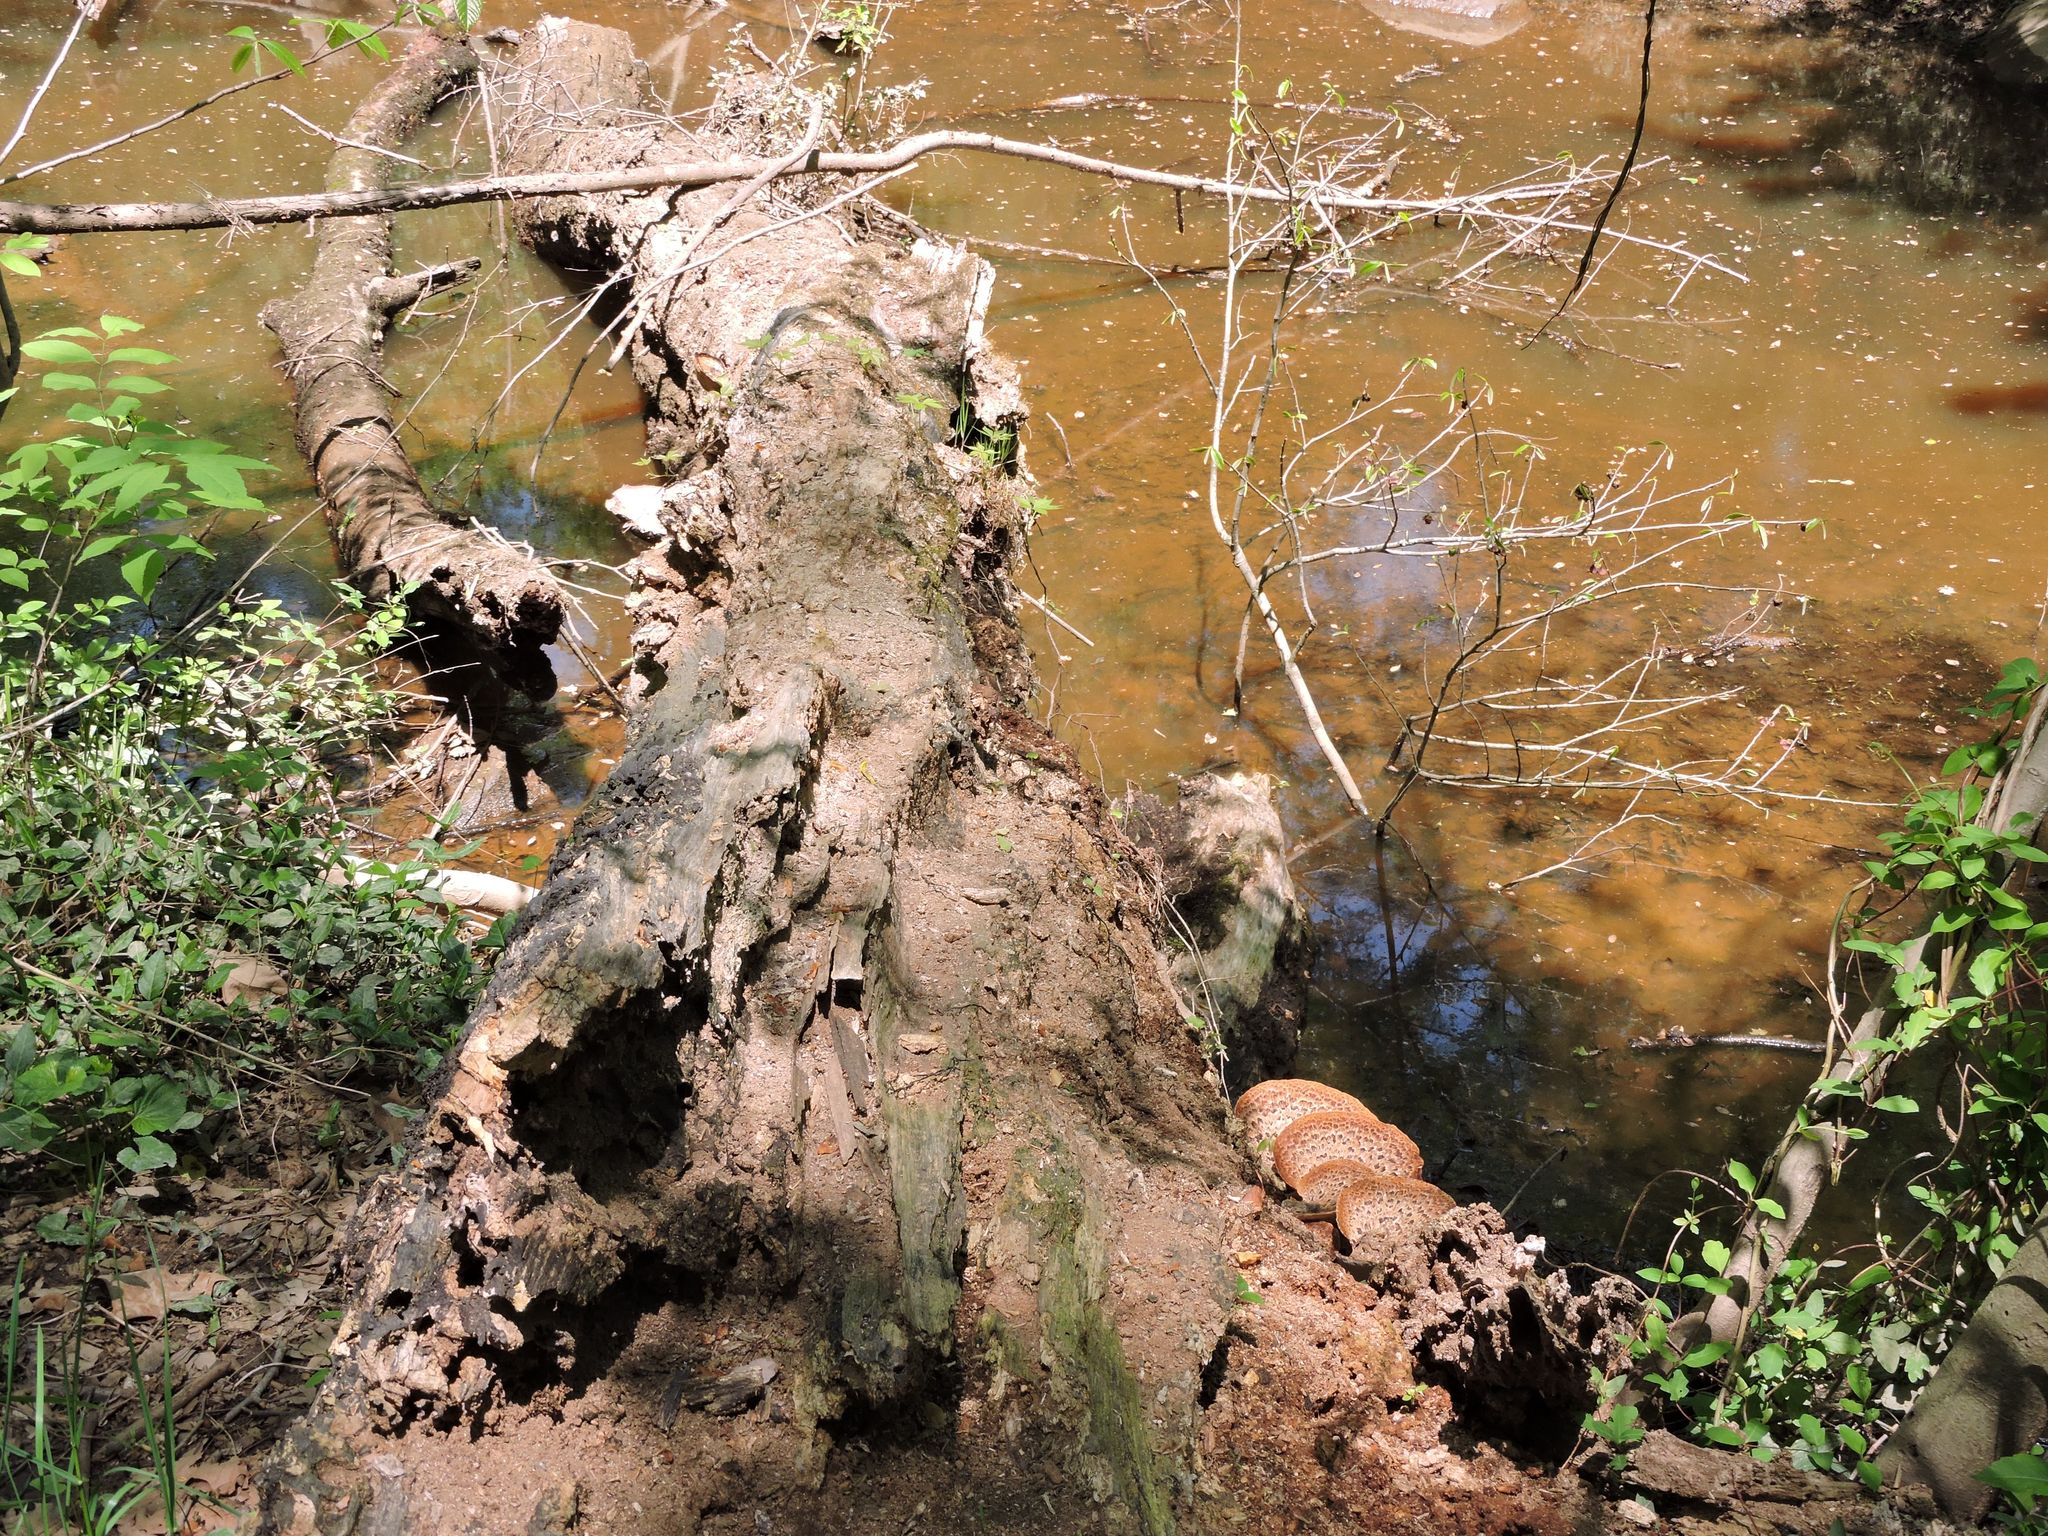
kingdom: Fungi
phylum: Basidiomycota
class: Agaricomycetes
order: Polyporales
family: Polyporaceae
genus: Cerioporus
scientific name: Cerioporus squamosus
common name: Dryad's saddle
